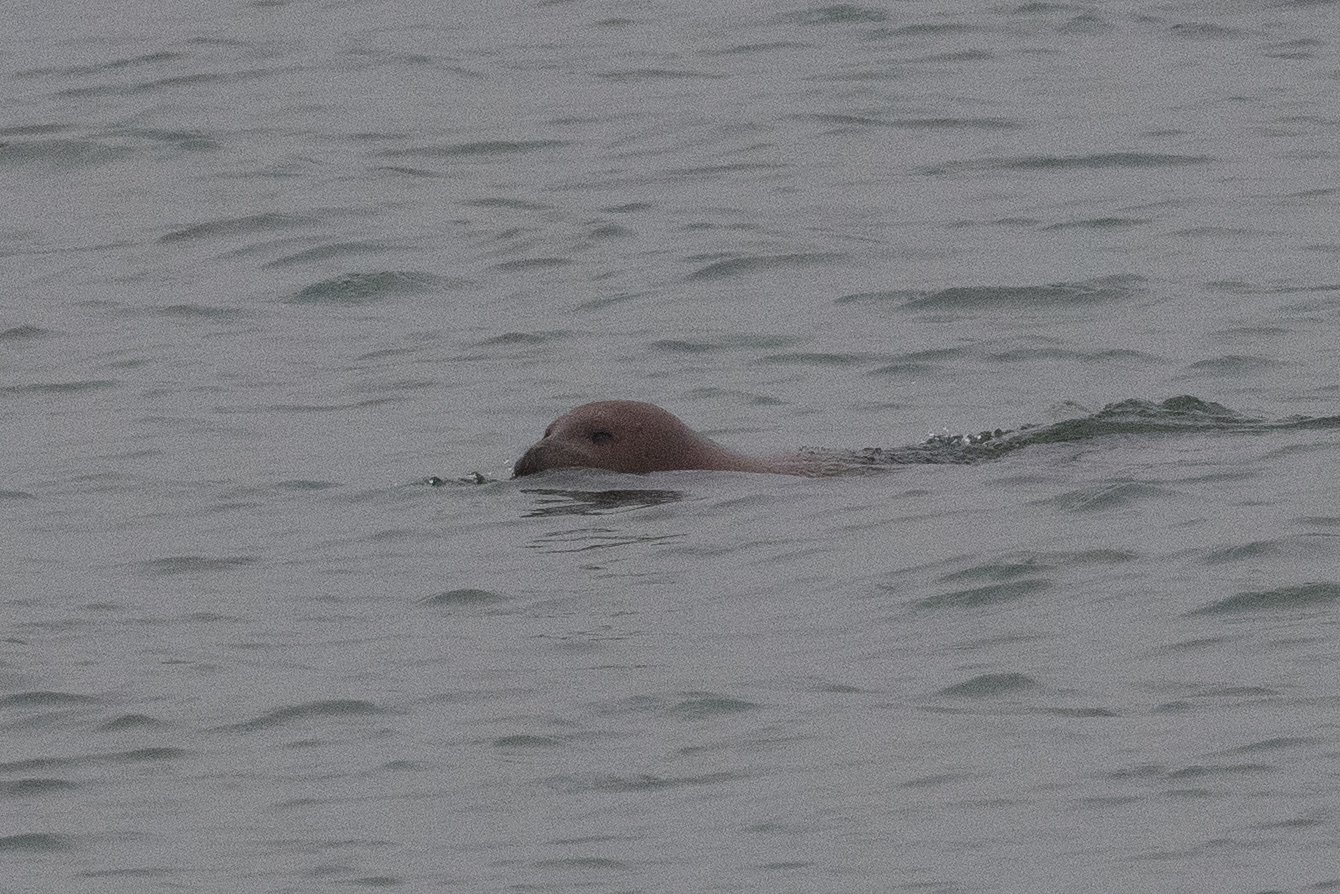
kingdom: Animalia
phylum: Chordata
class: Mammalia
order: Carnivora
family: Phocidae
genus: Phoca
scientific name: Phoca vitulina
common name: Harbor seal
